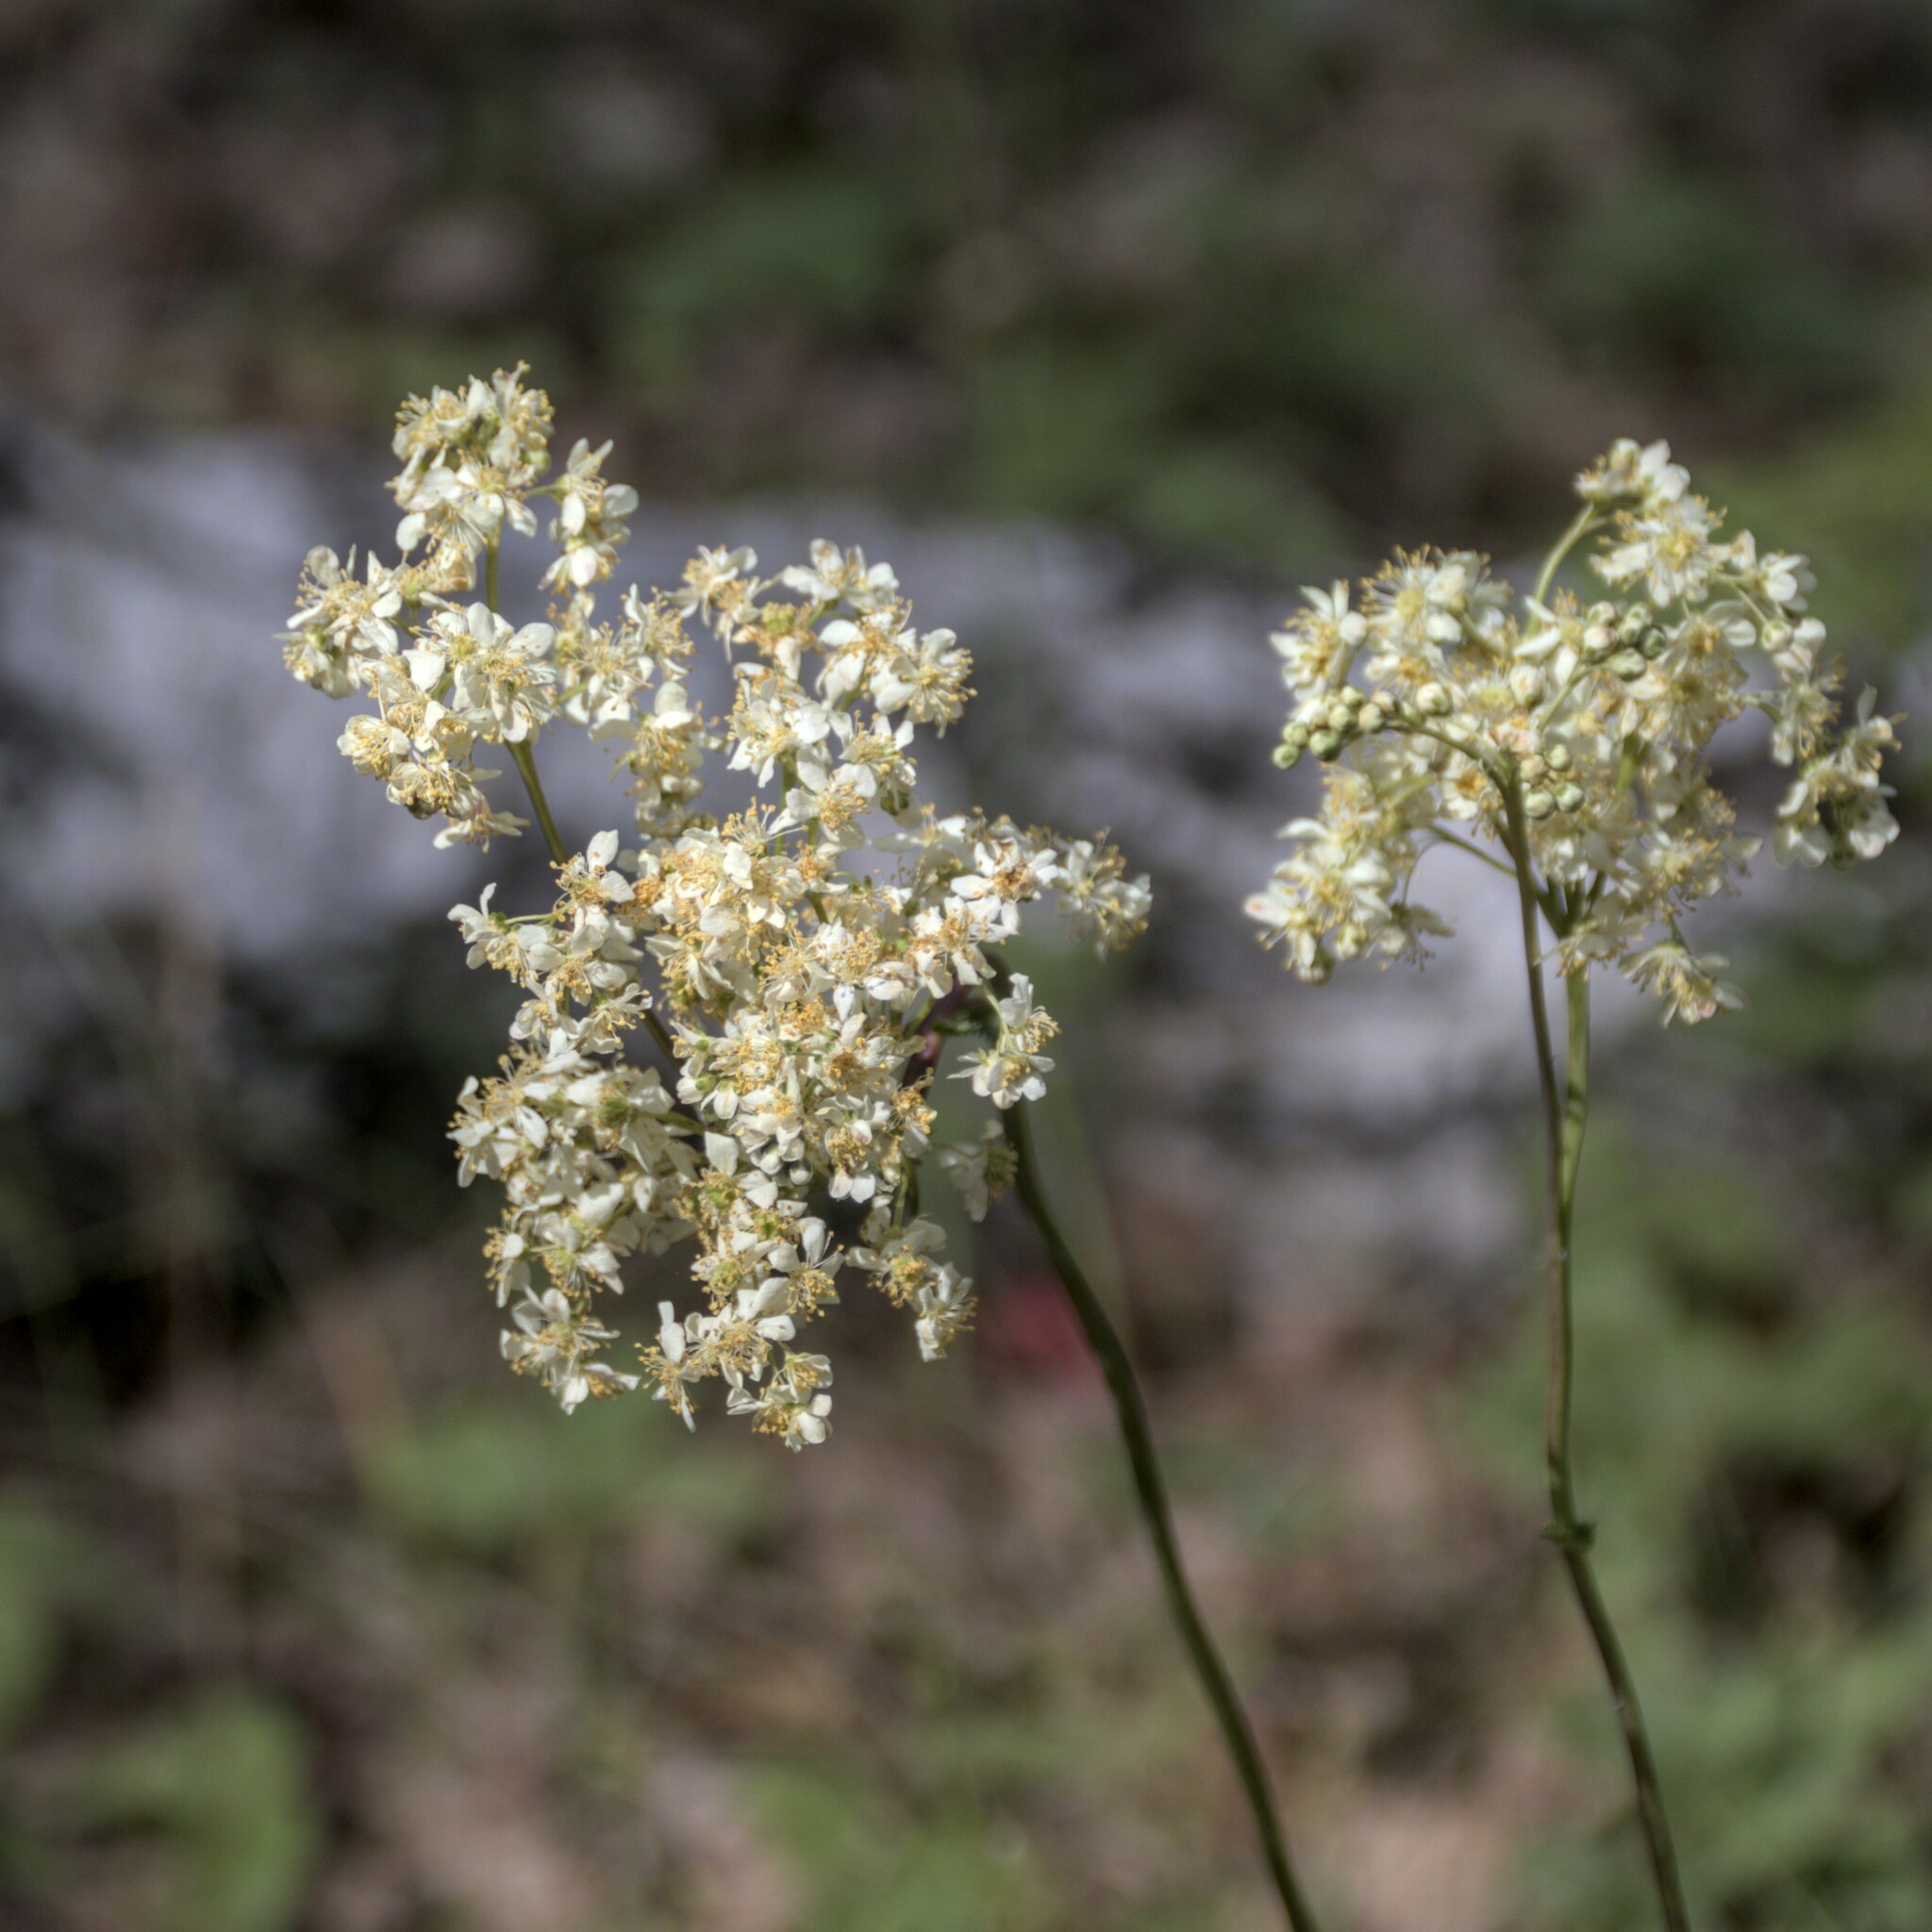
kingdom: Plantae
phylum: Tracheophyta
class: Magnoliopsida
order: Rosales
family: Rosaceae
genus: Filipendula
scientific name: Filipendula vulgaris
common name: Dropwort
